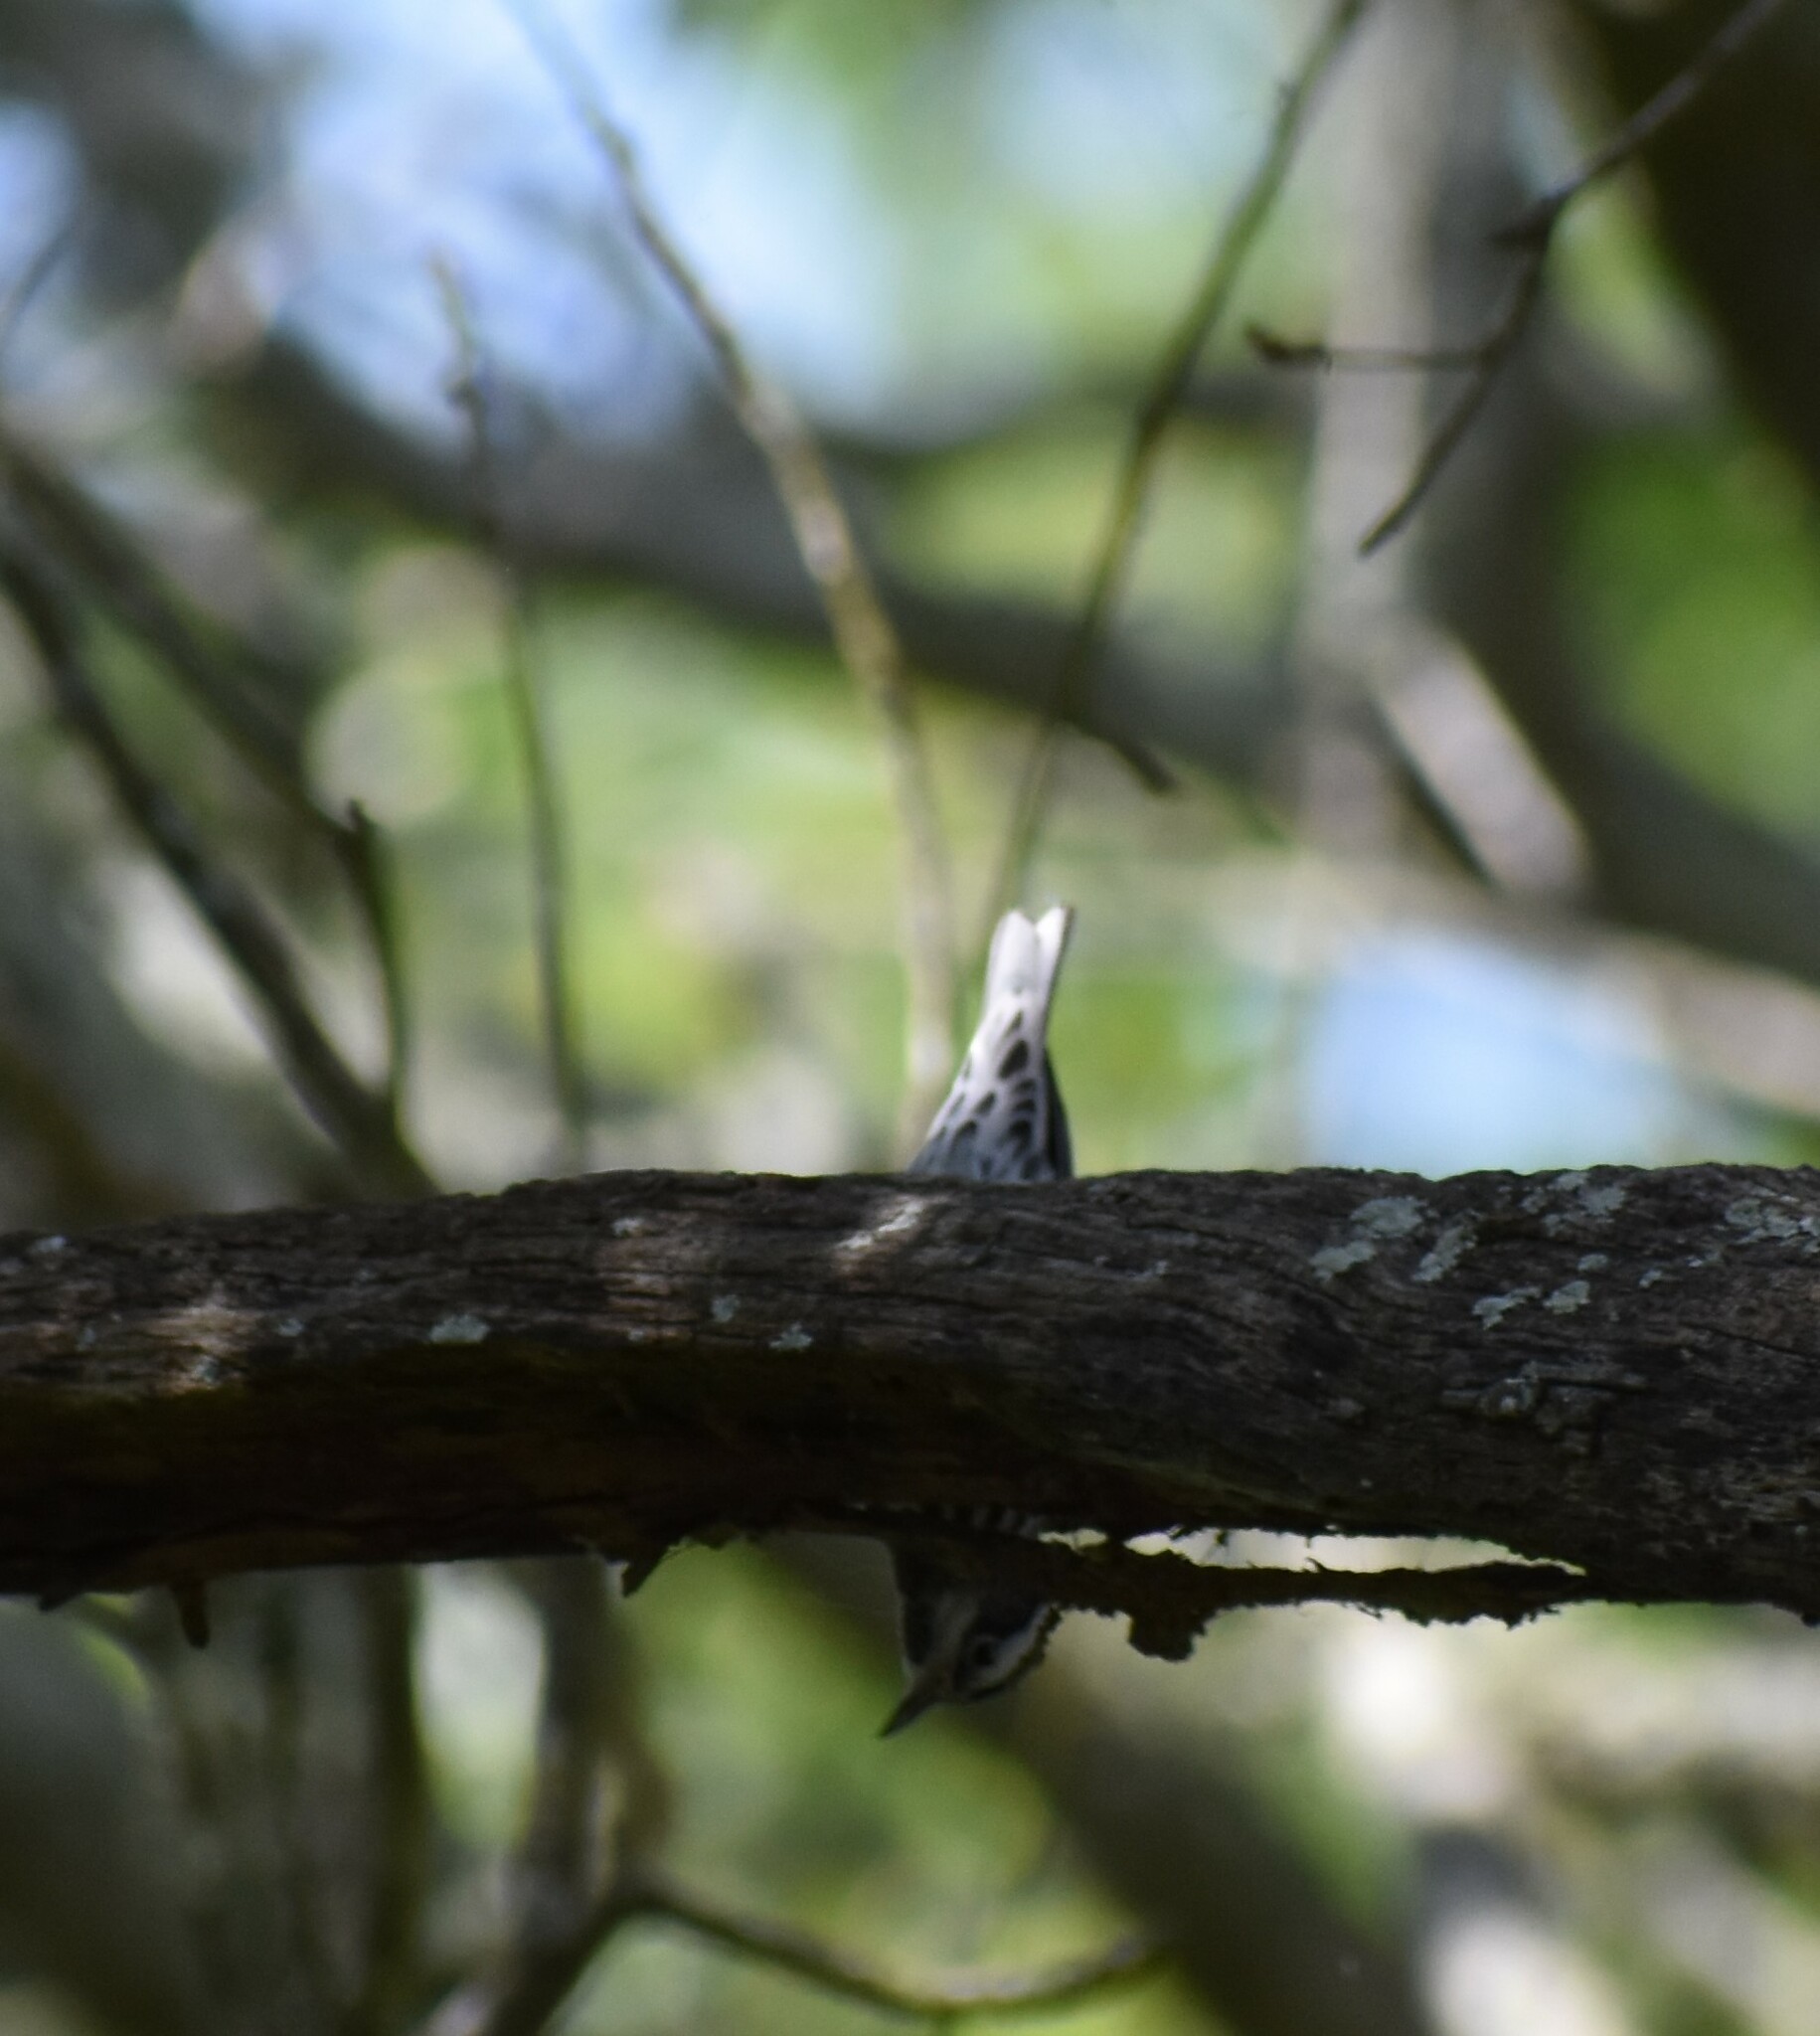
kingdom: Animalia
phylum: Chordata
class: Aves
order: Passeriformes
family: Parulidae
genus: Mniotilta
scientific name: Mniotilta varia
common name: Black-and-white warbler
